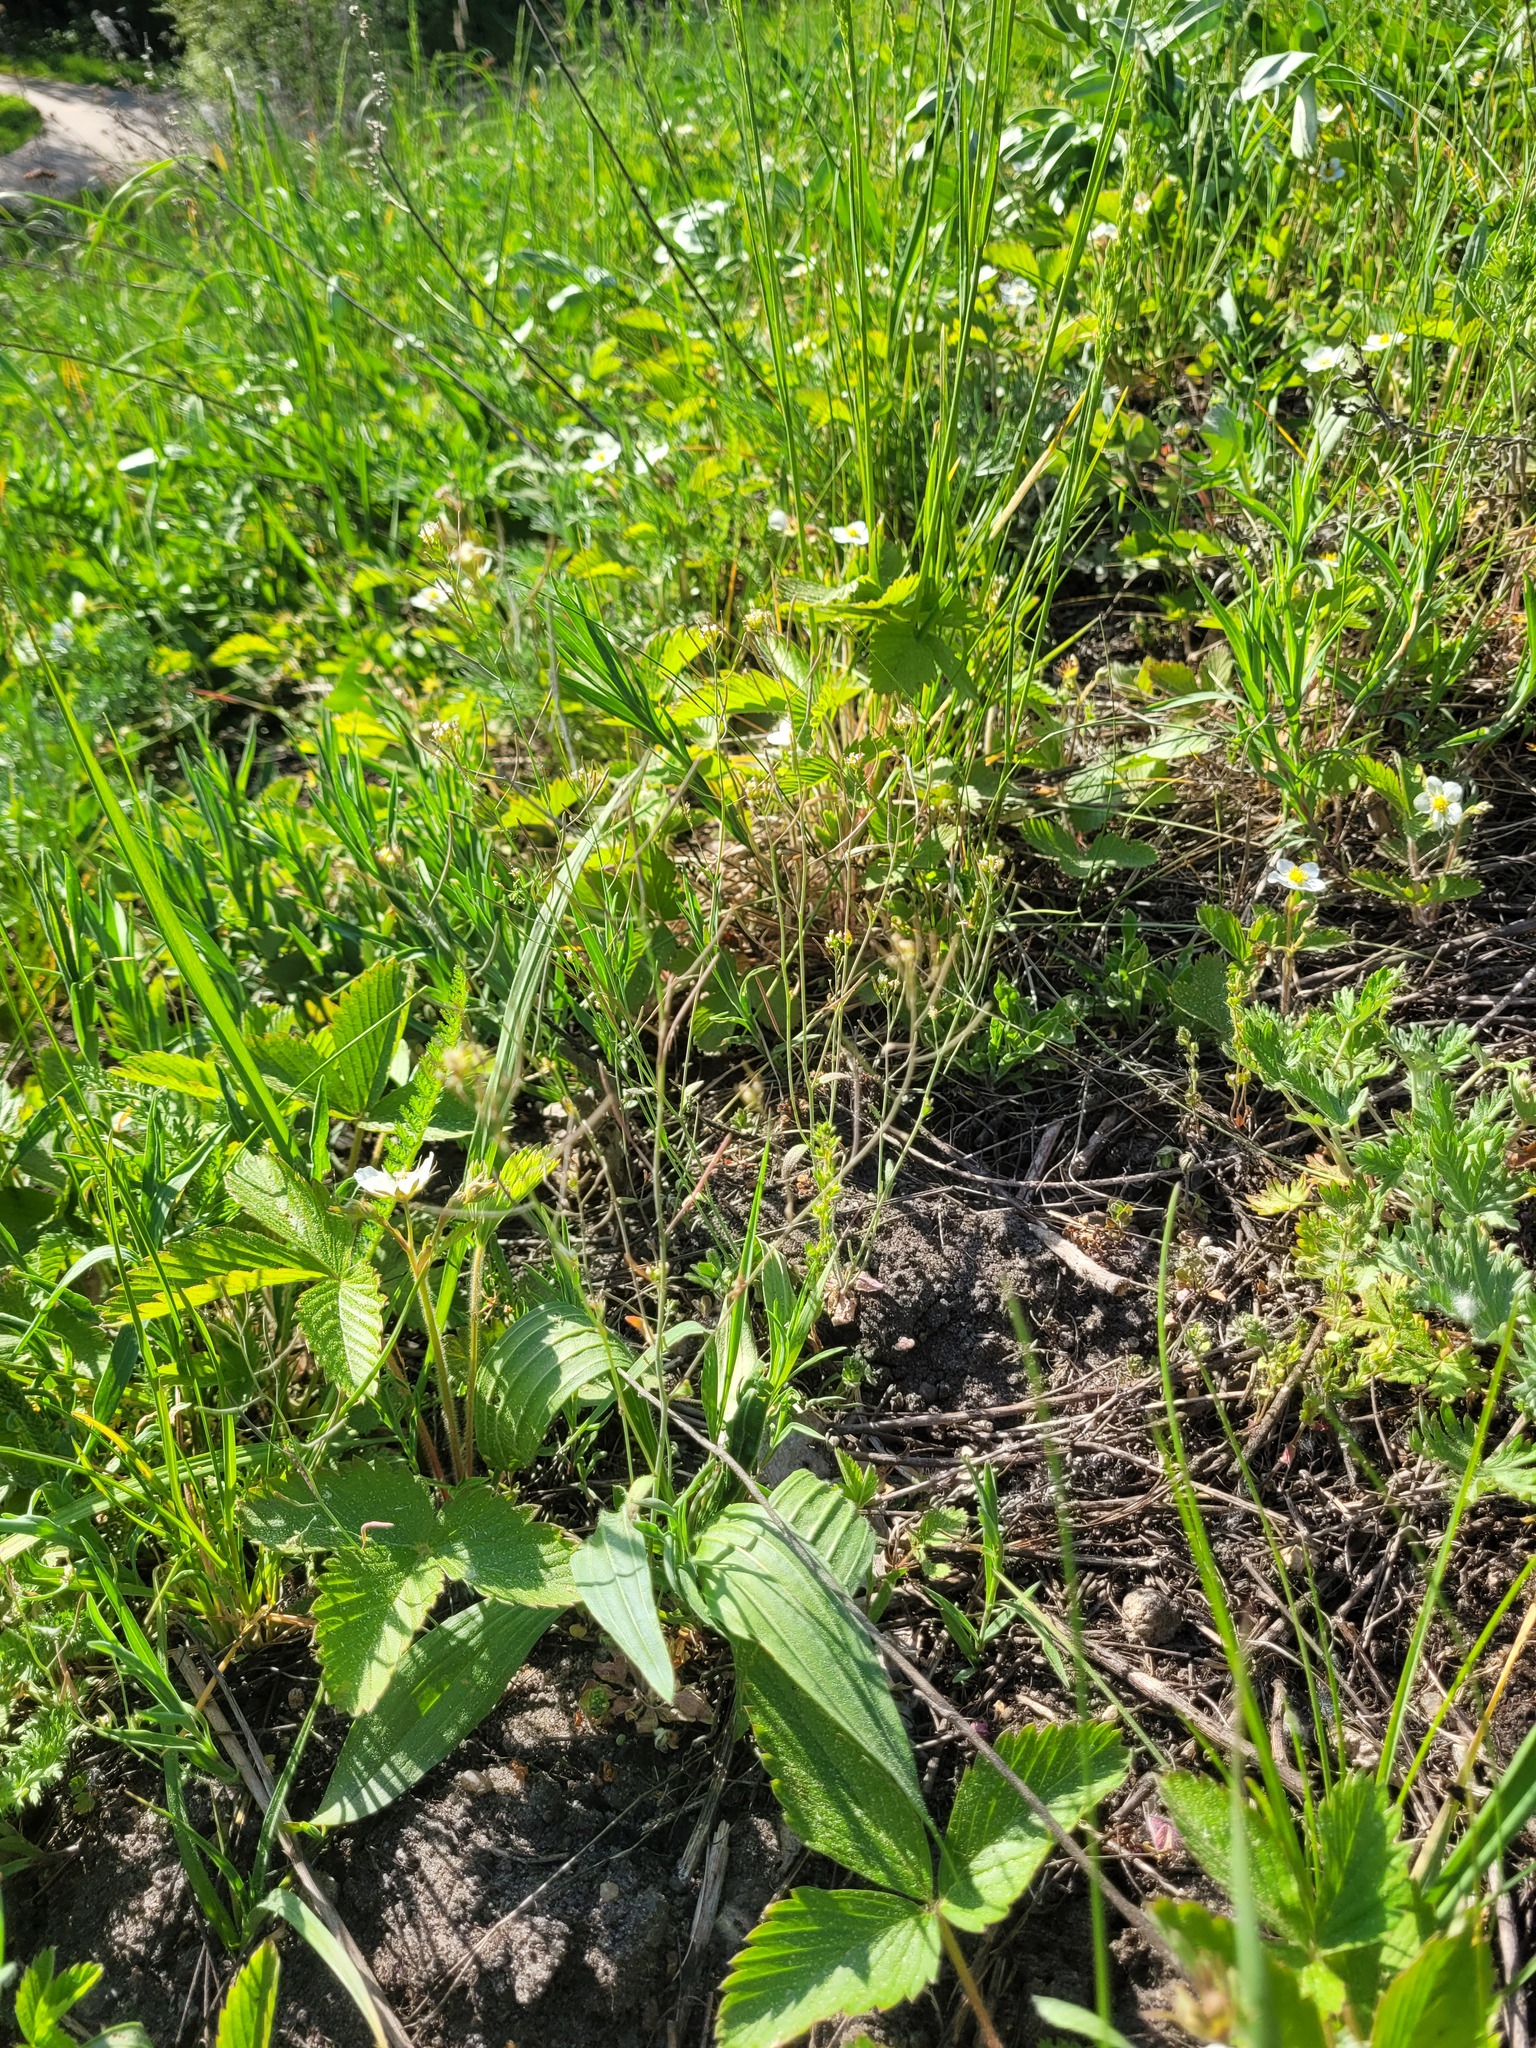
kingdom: Plantae
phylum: Tracheophyta
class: Magnoliopsida
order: Brassicales
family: Brassicaceae
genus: Arabidopsis
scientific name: Arabidopsis thaliana
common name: Thale cress
